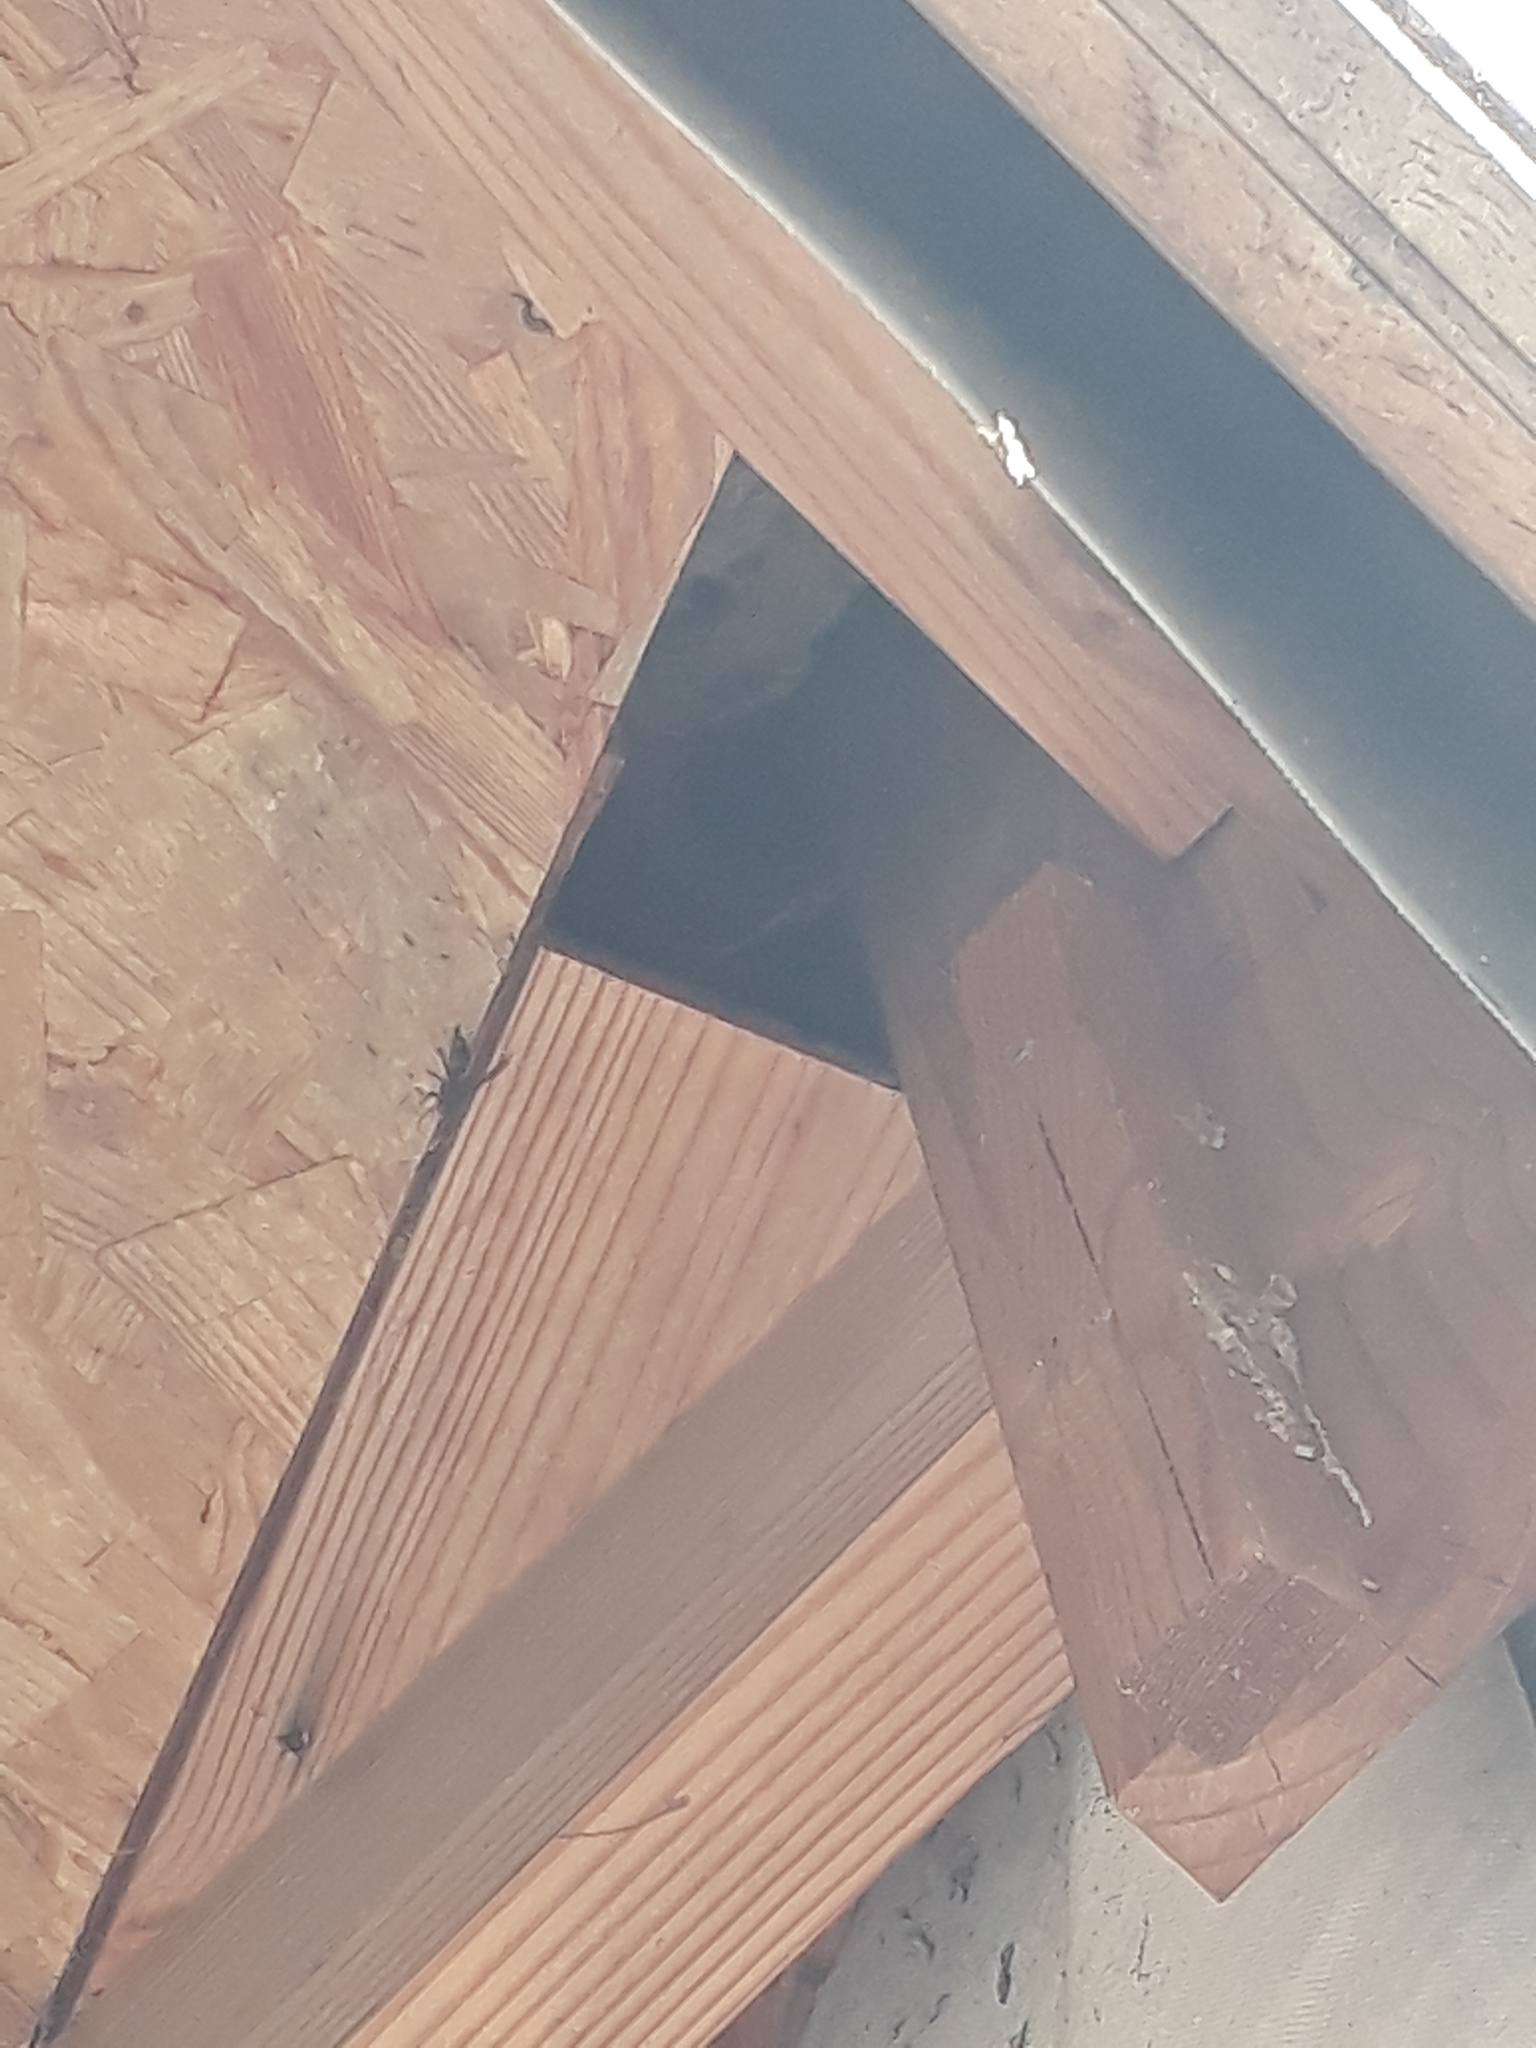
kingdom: Animalia
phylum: Arthropoda
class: Insecta
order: Hymenoptera
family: Vespidae
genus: Vespa
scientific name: Vespa velutina
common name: Asian hornet
